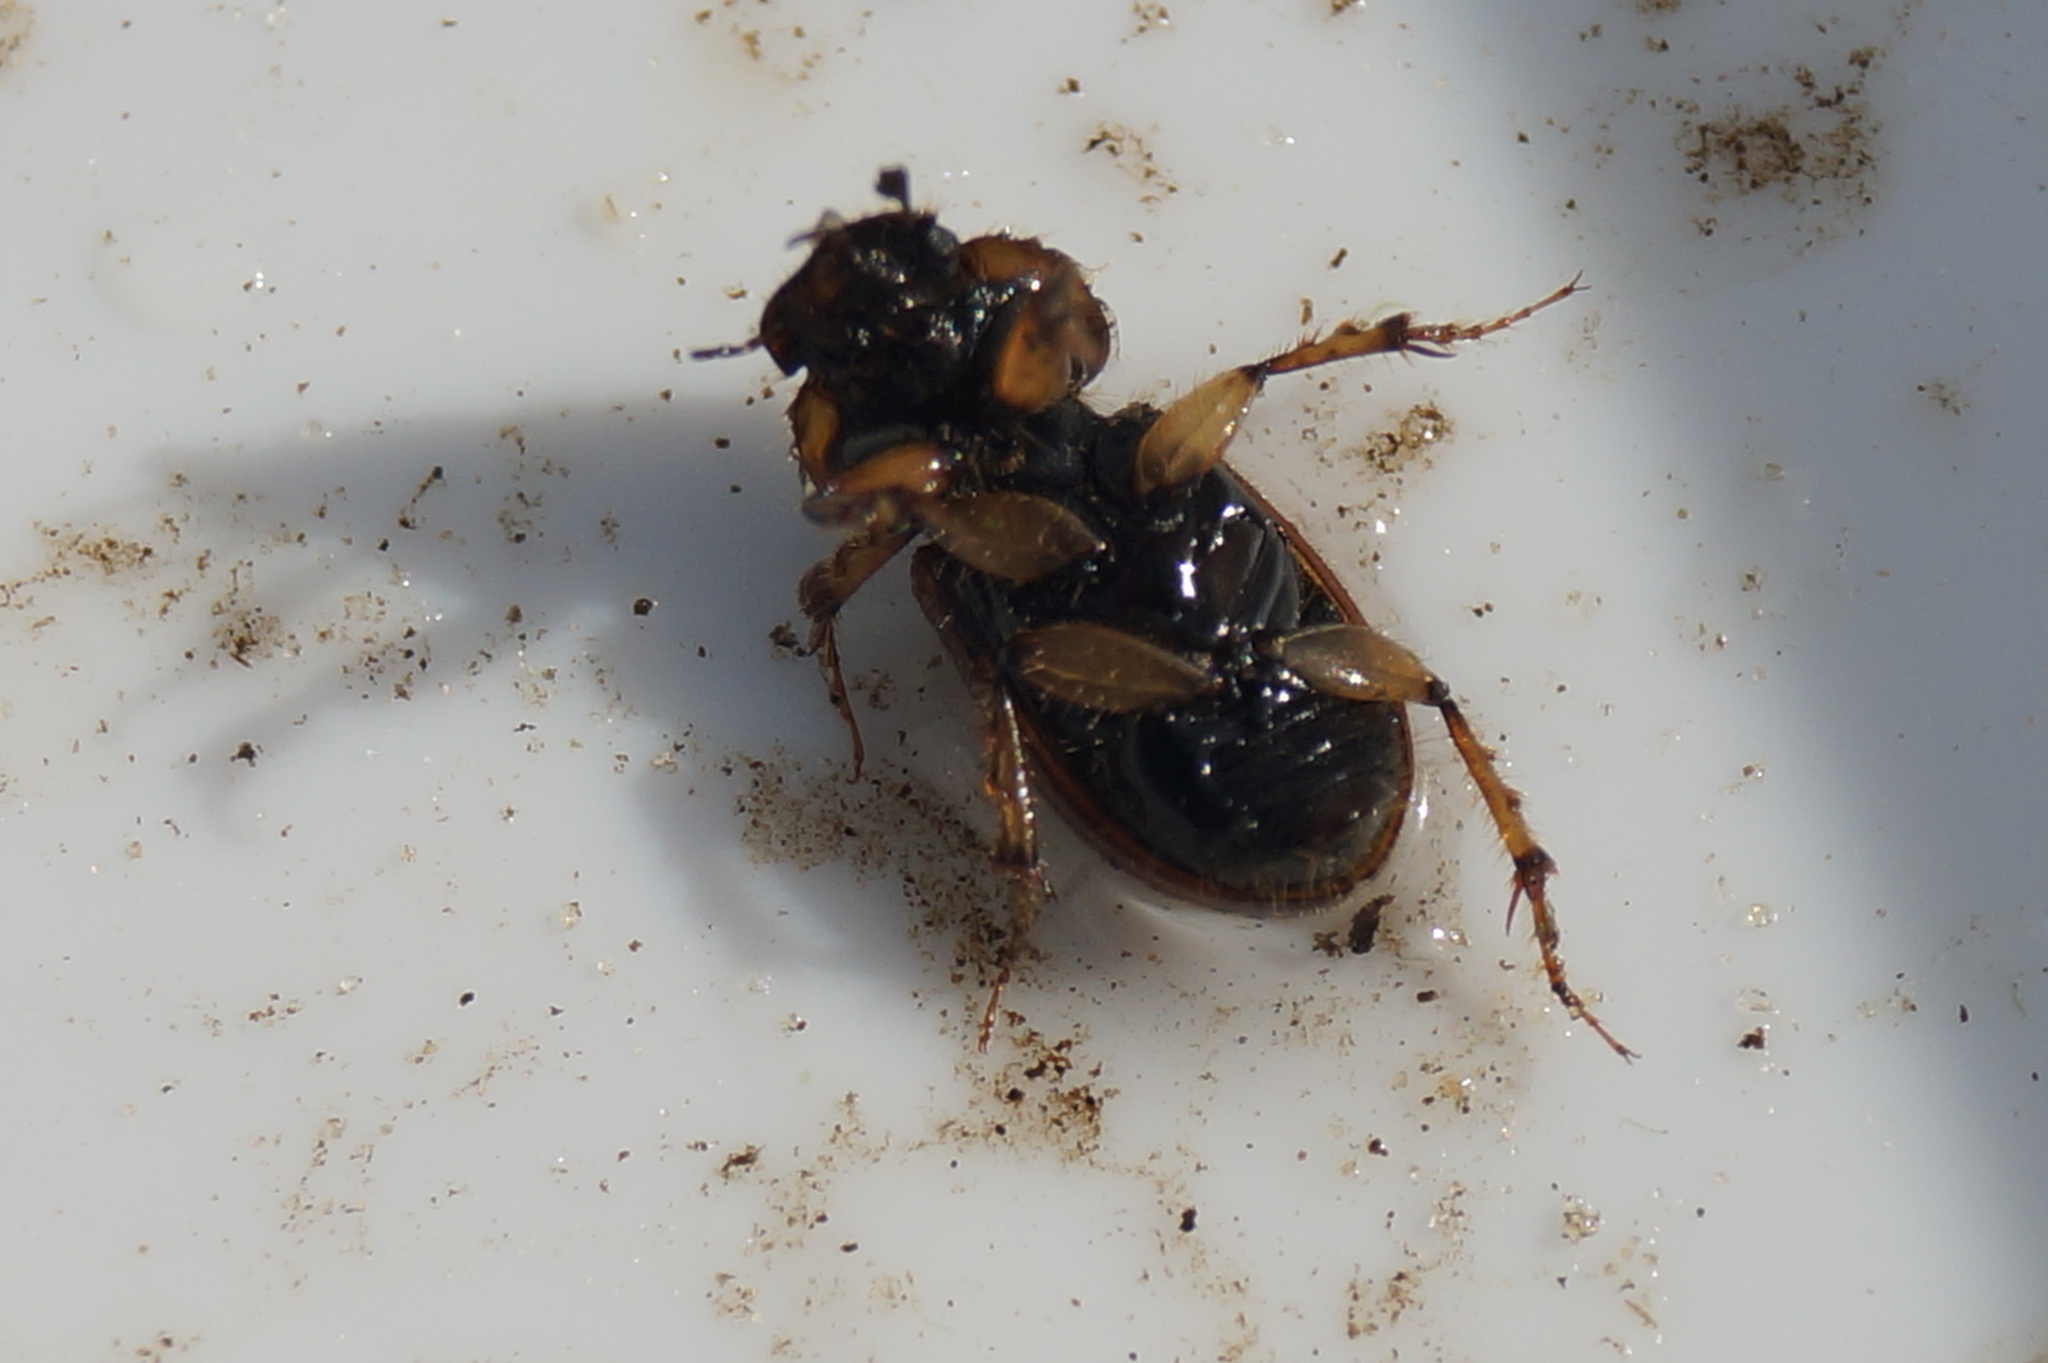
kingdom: Animalia
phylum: Arthropoda
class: Insecta
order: Coleoptera
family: Scarabaeidae
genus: Nimbus
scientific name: Nimbus contaminatus
